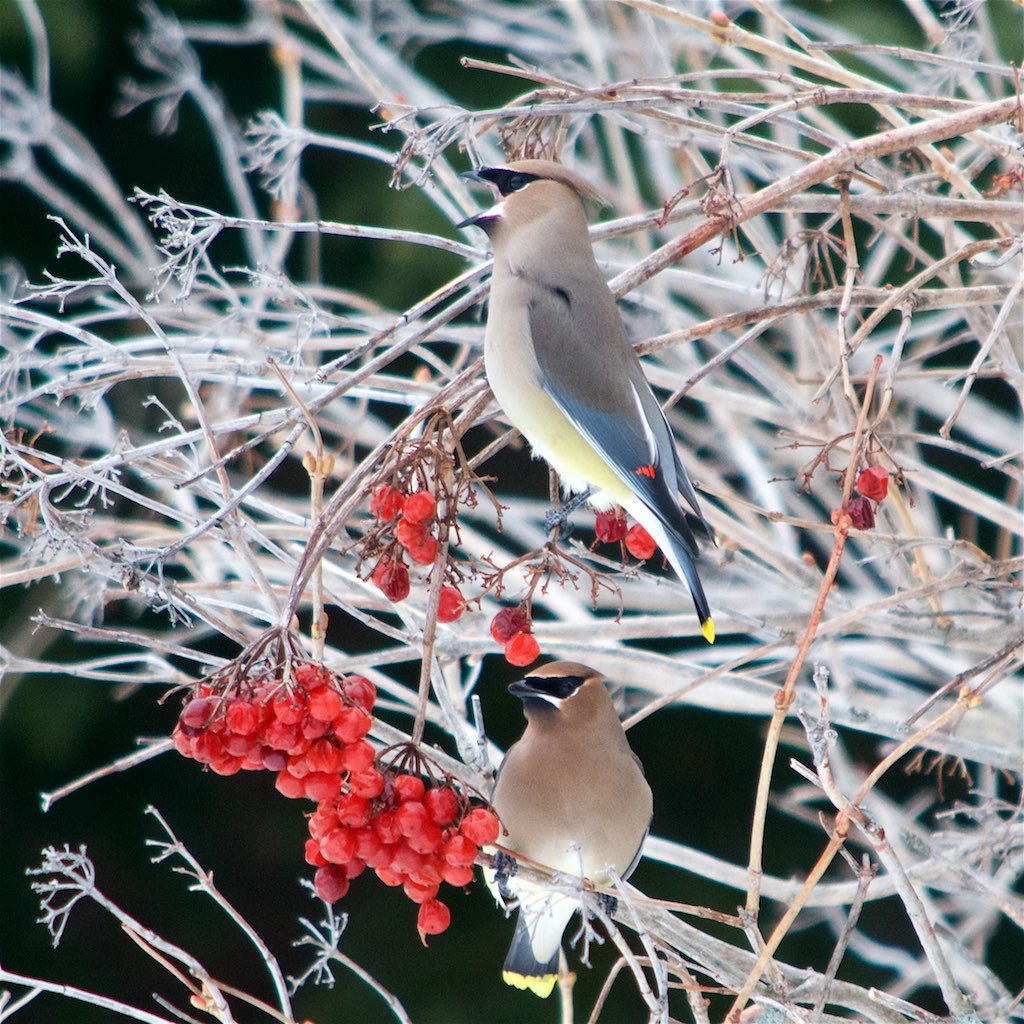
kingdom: Animalia
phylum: Chordata
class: Aves
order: Passeriformes
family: Bombycillidae
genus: Bombycilla
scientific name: Bombycilla cedrorum
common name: Cedar waxwing
